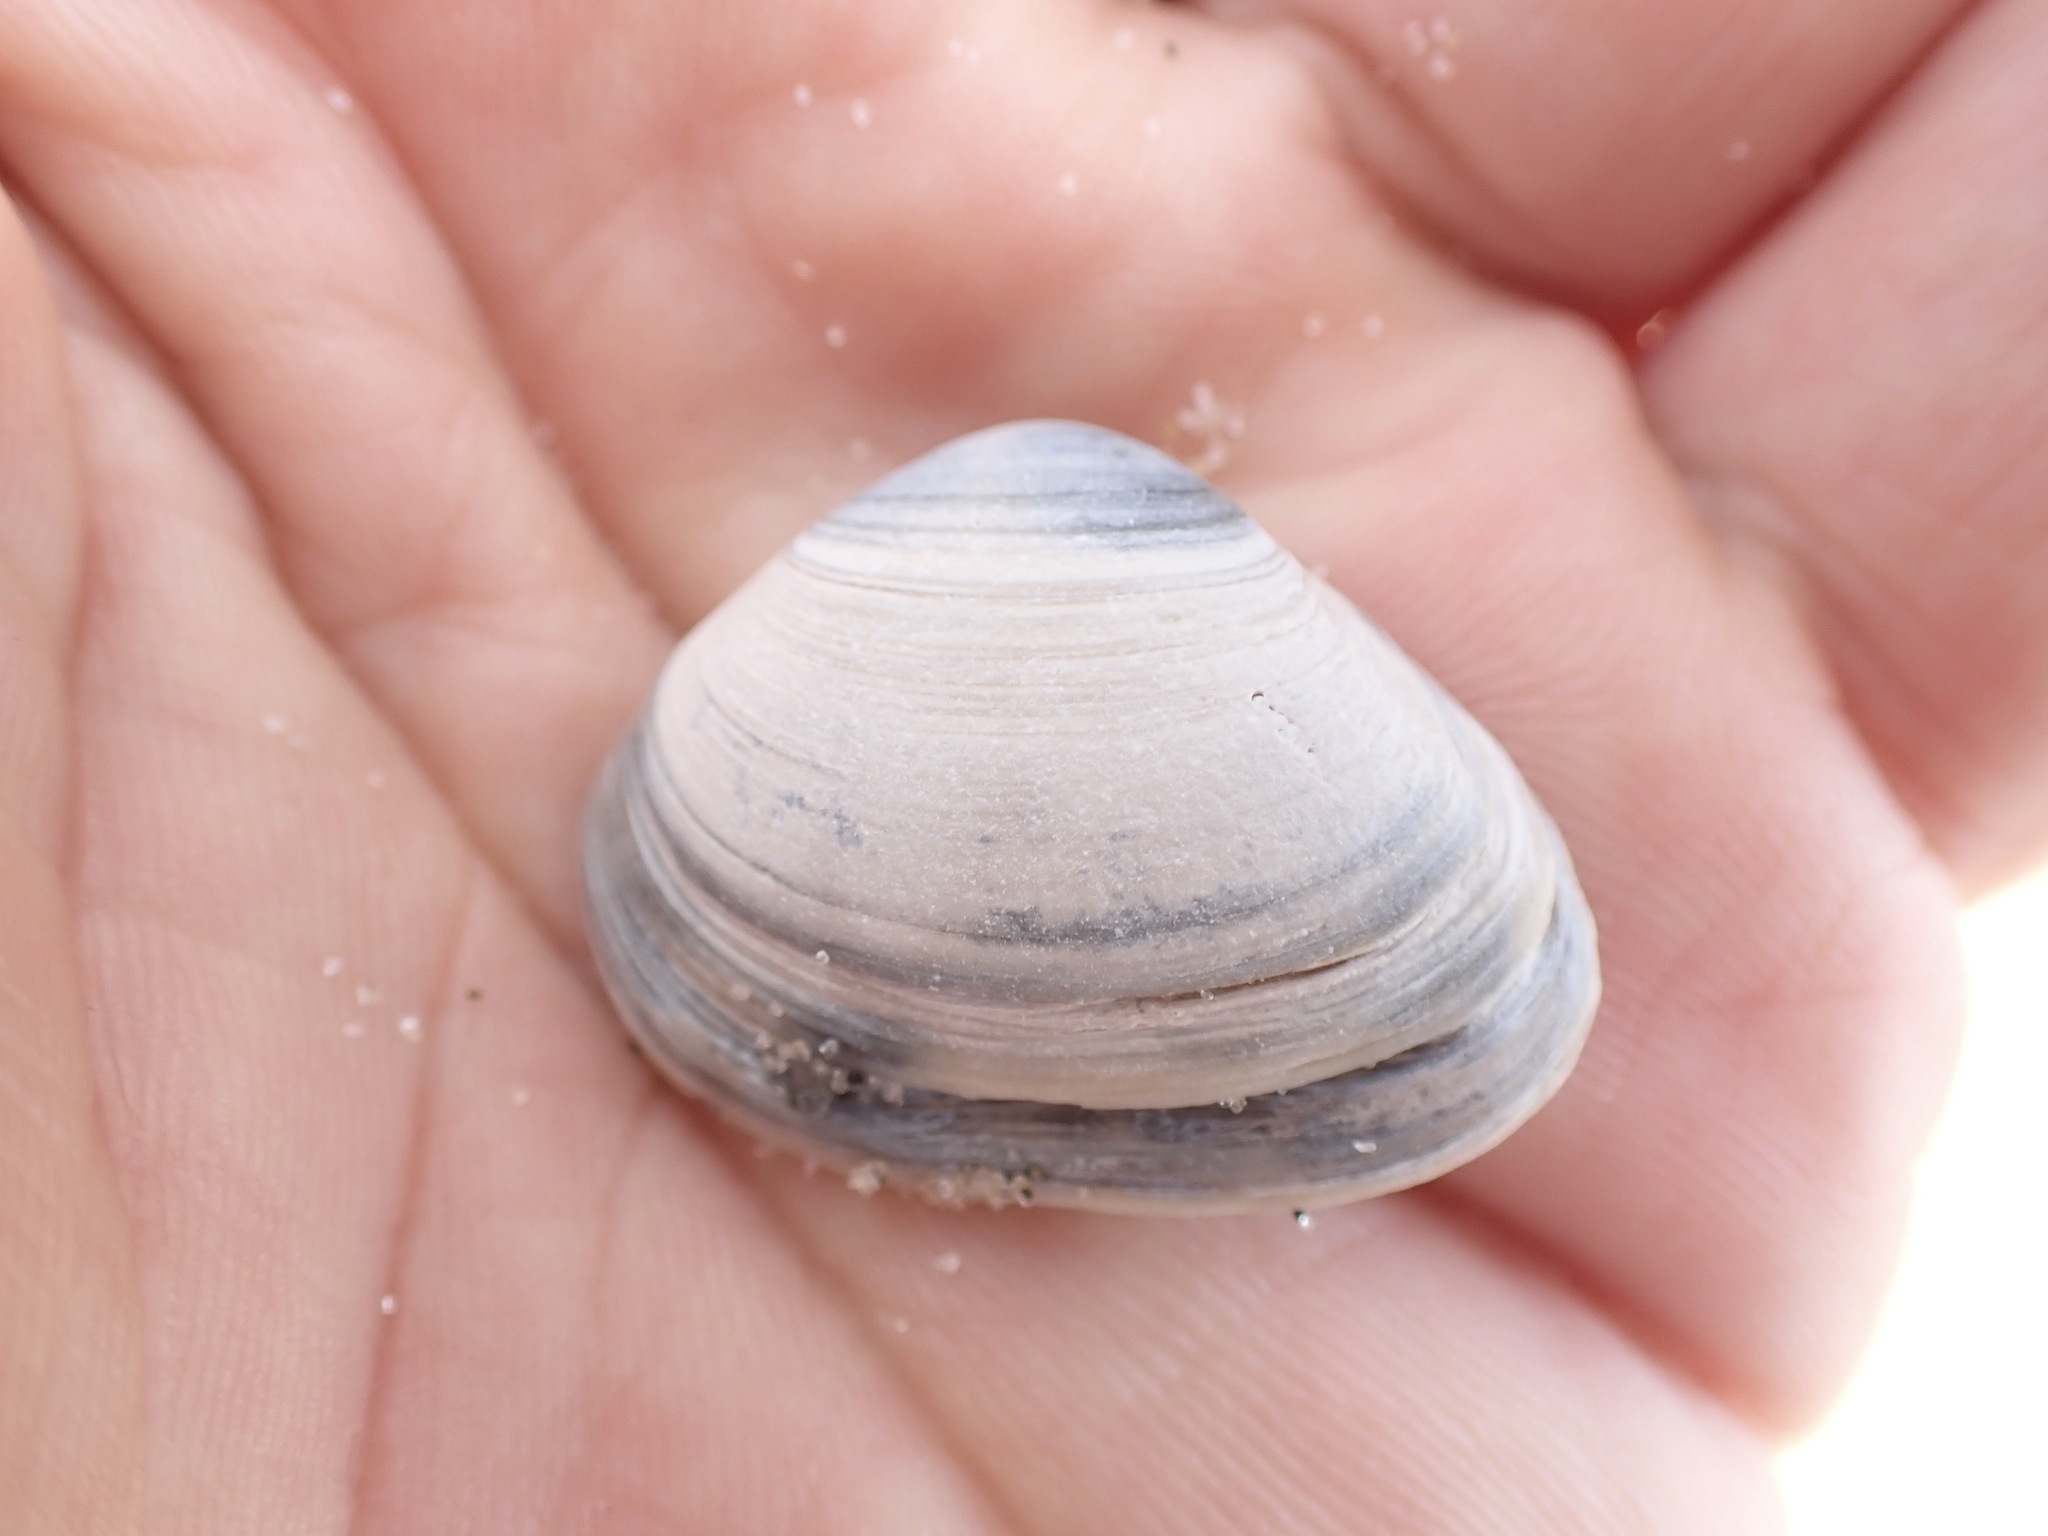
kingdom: Animalia
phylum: Mollusca
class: Bivalvia
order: Venerida
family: Mactridae
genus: Spisula
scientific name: Spisula subtruncata
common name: Cut trough shell
